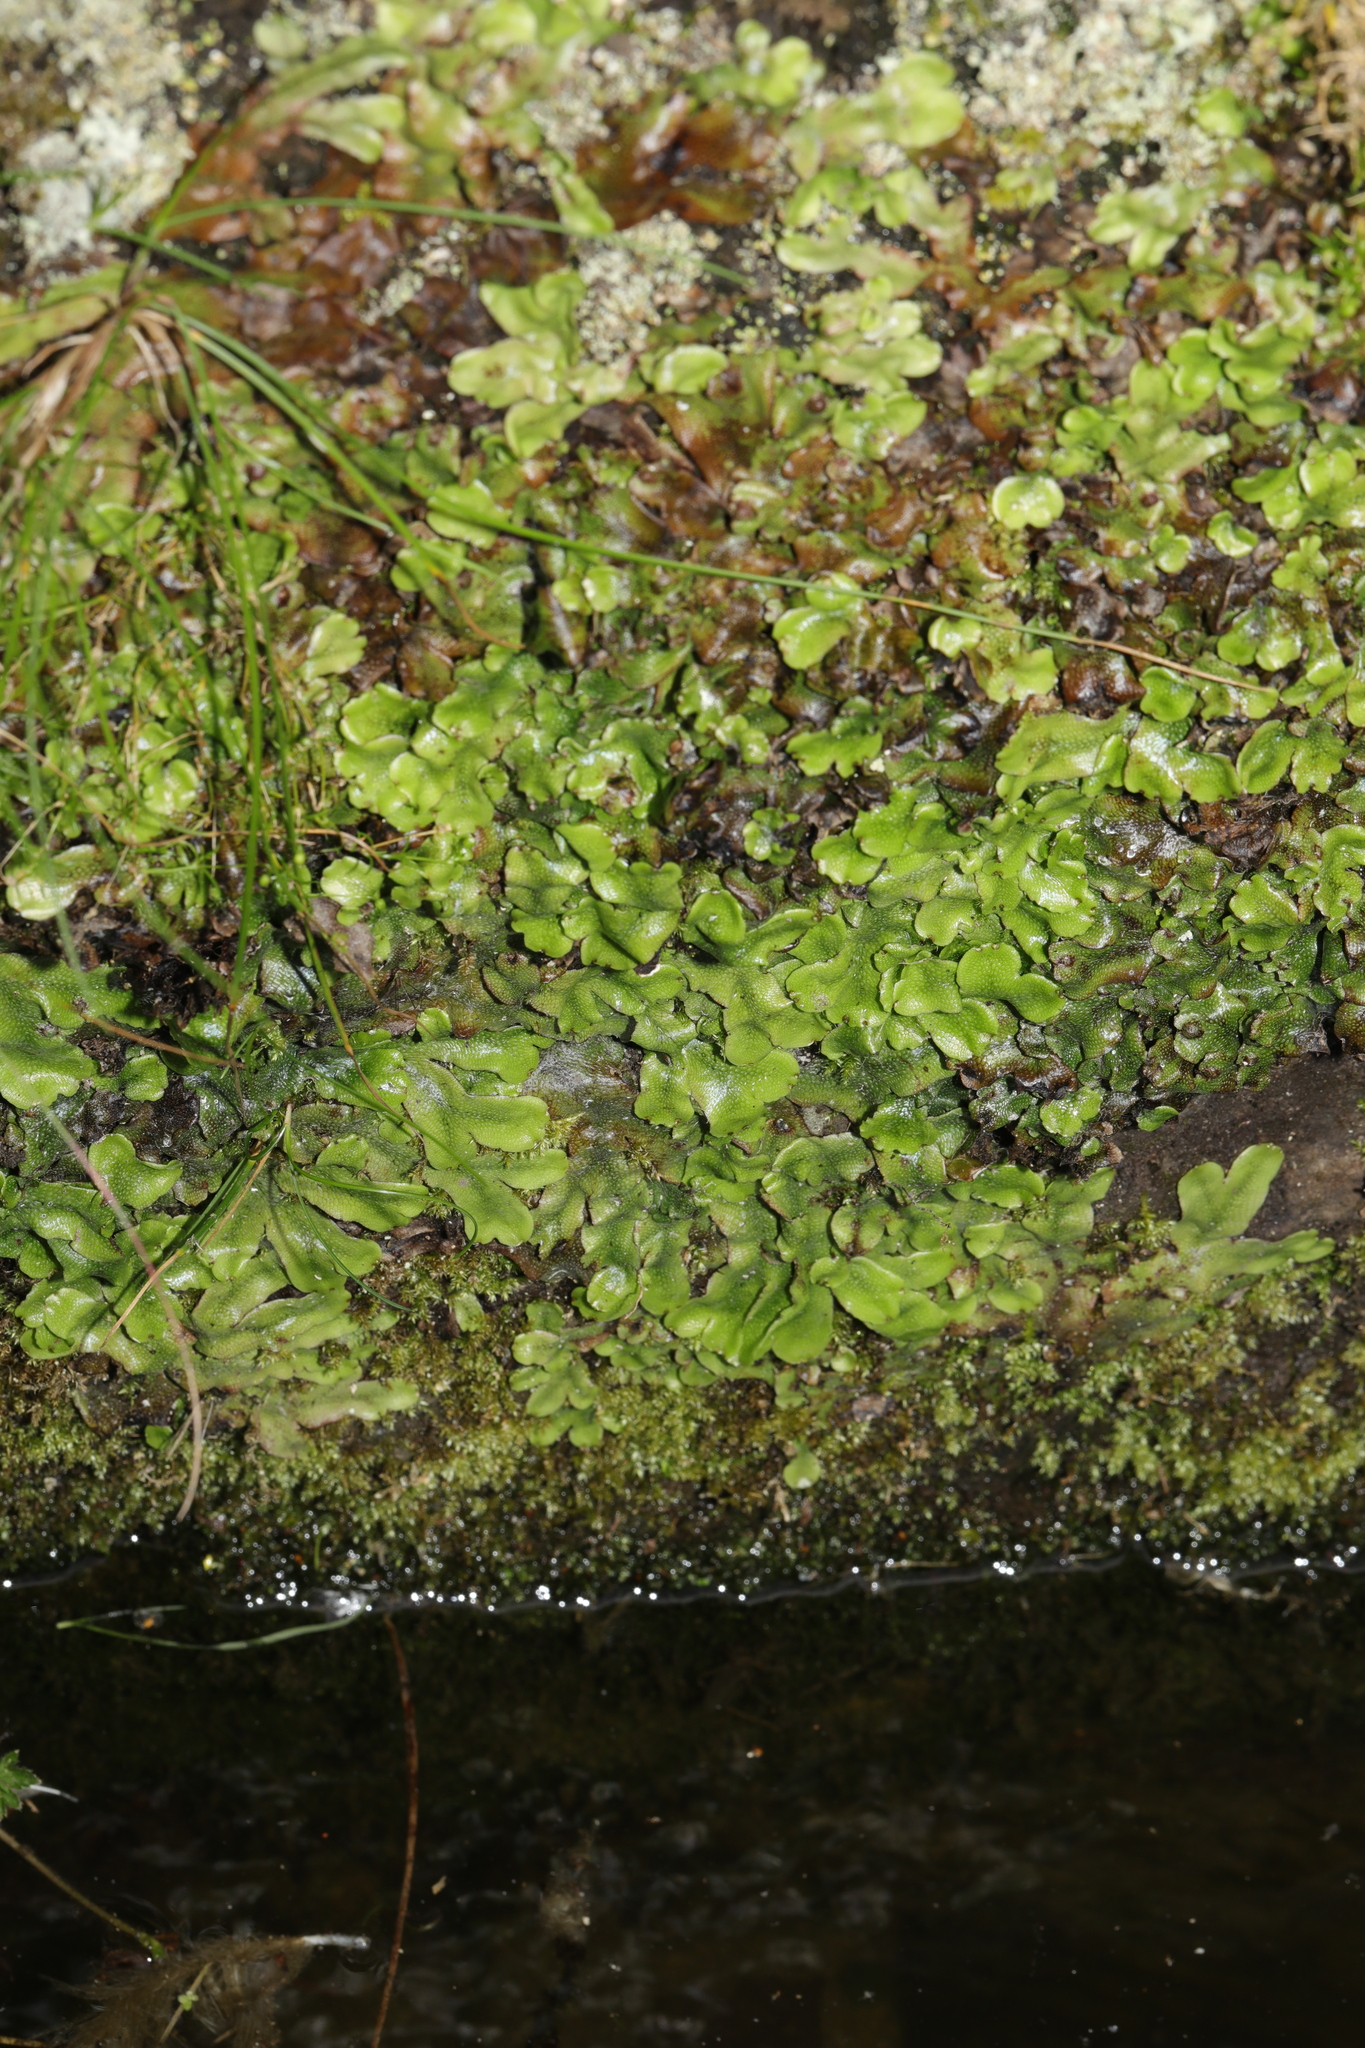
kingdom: Plantae
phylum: Marchantiophyta
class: Marchantiopsida
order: Marchantiales
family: Conocephalaceae
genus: Conocephalum
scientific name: Conocephalum conicum
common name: Great scented liverwort
